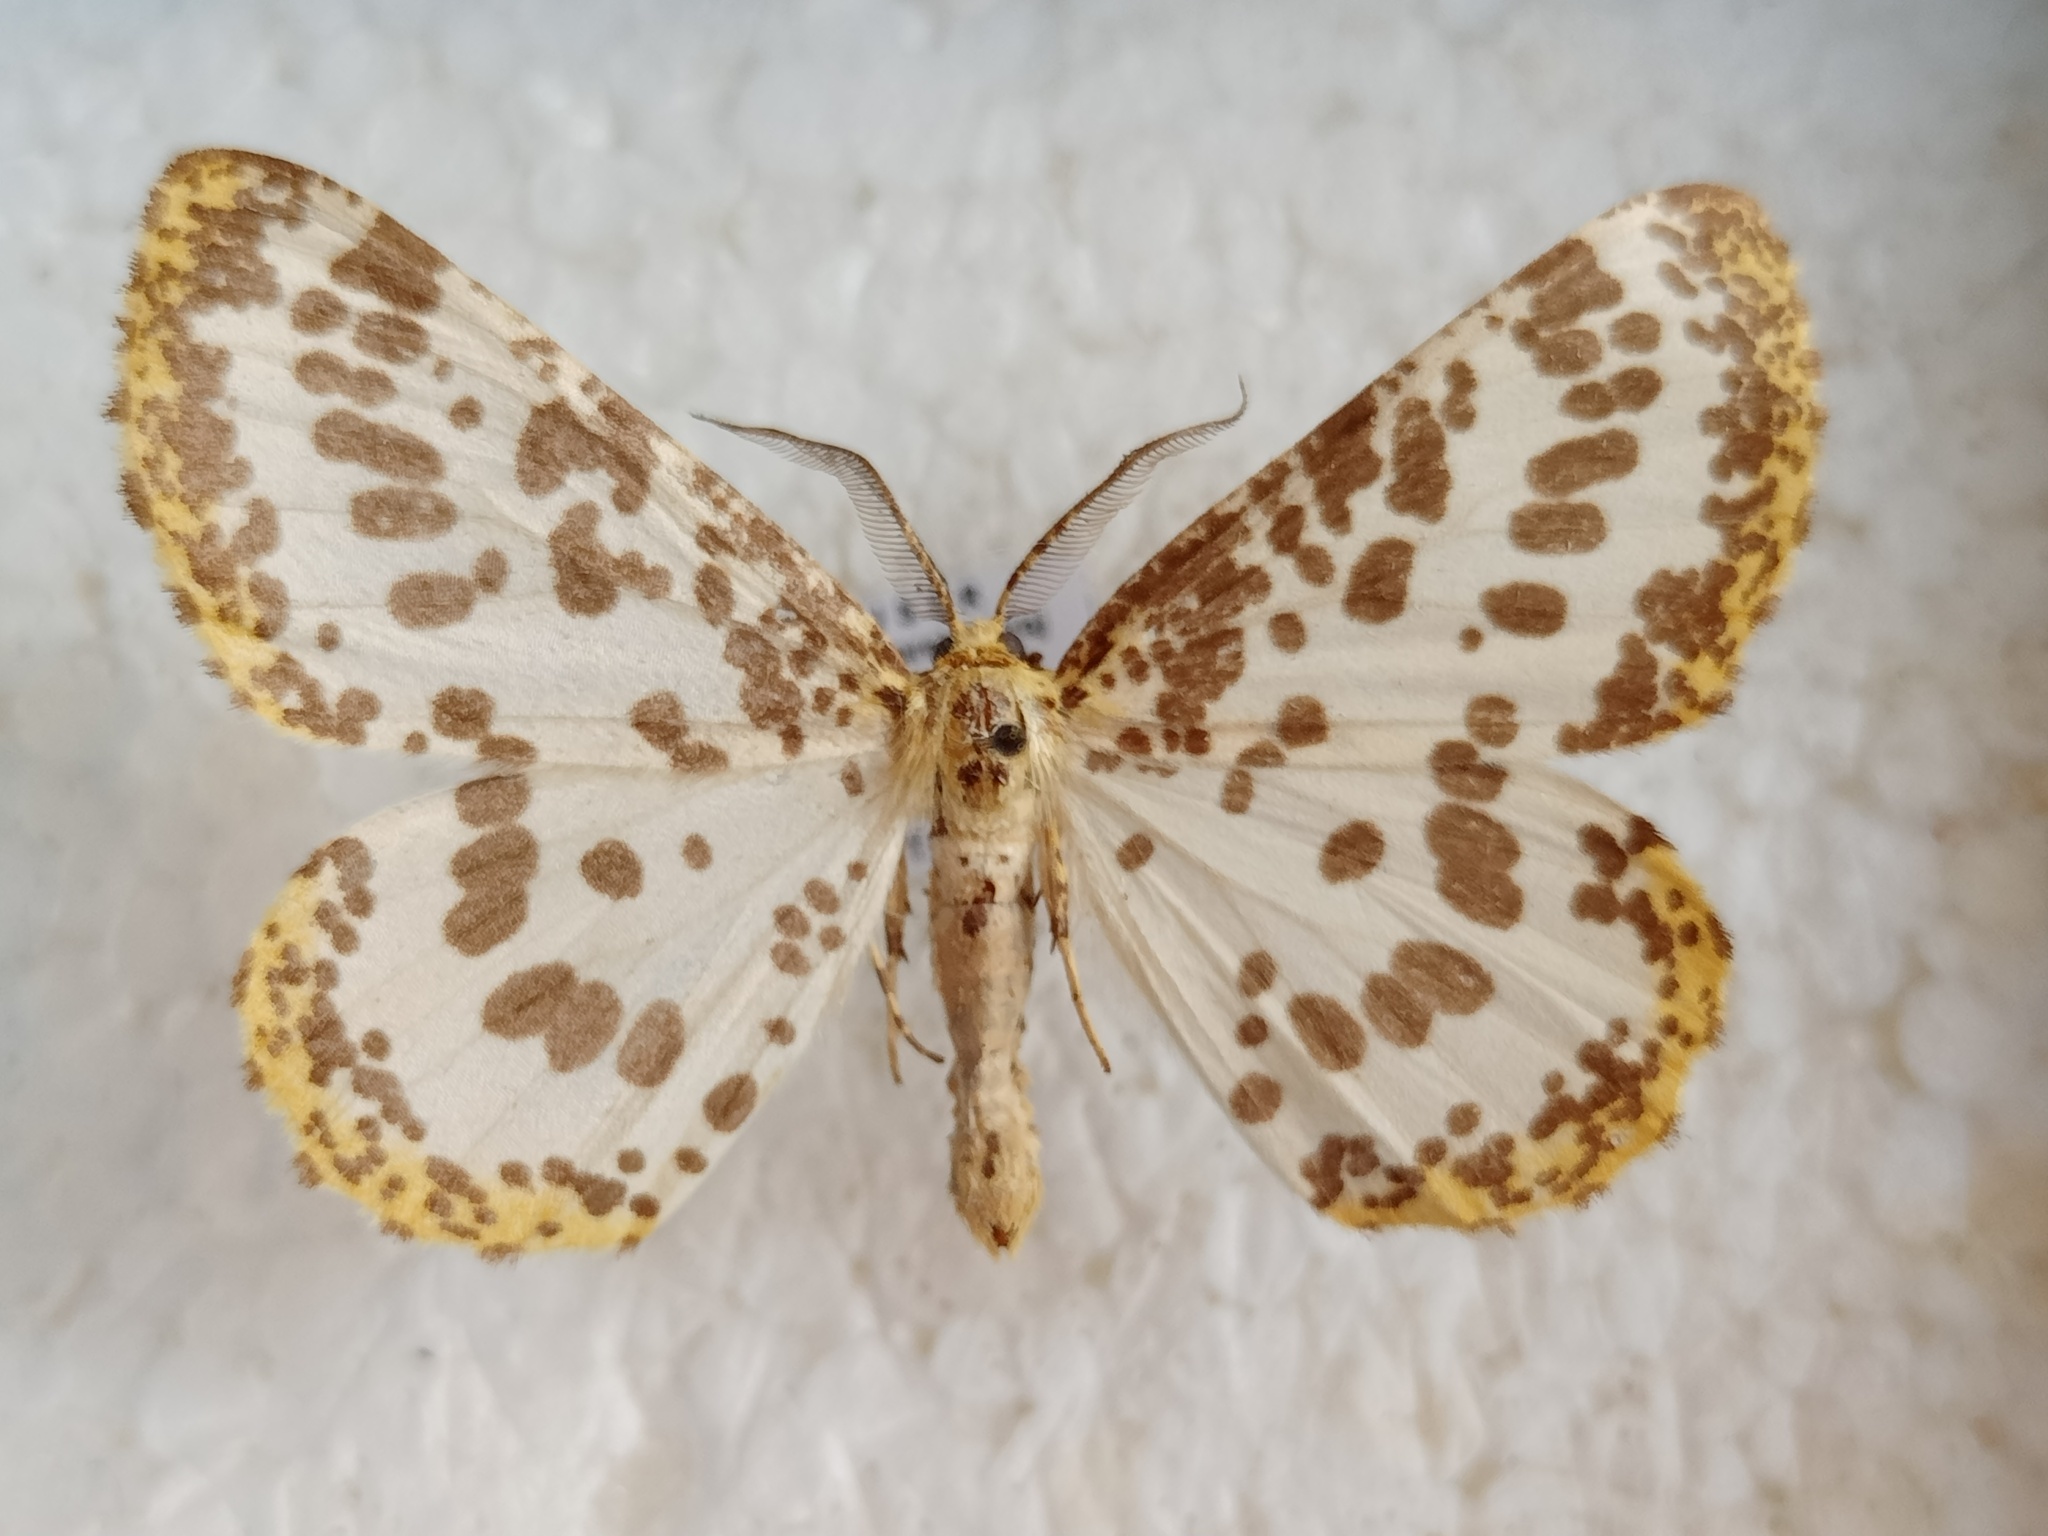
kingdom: Animalia
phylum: Arthropoda
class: Insecta
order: Lepidoptera
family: Geometridae
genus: Diaprepesilla
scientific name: Diaprepesilla flavomarginaria
